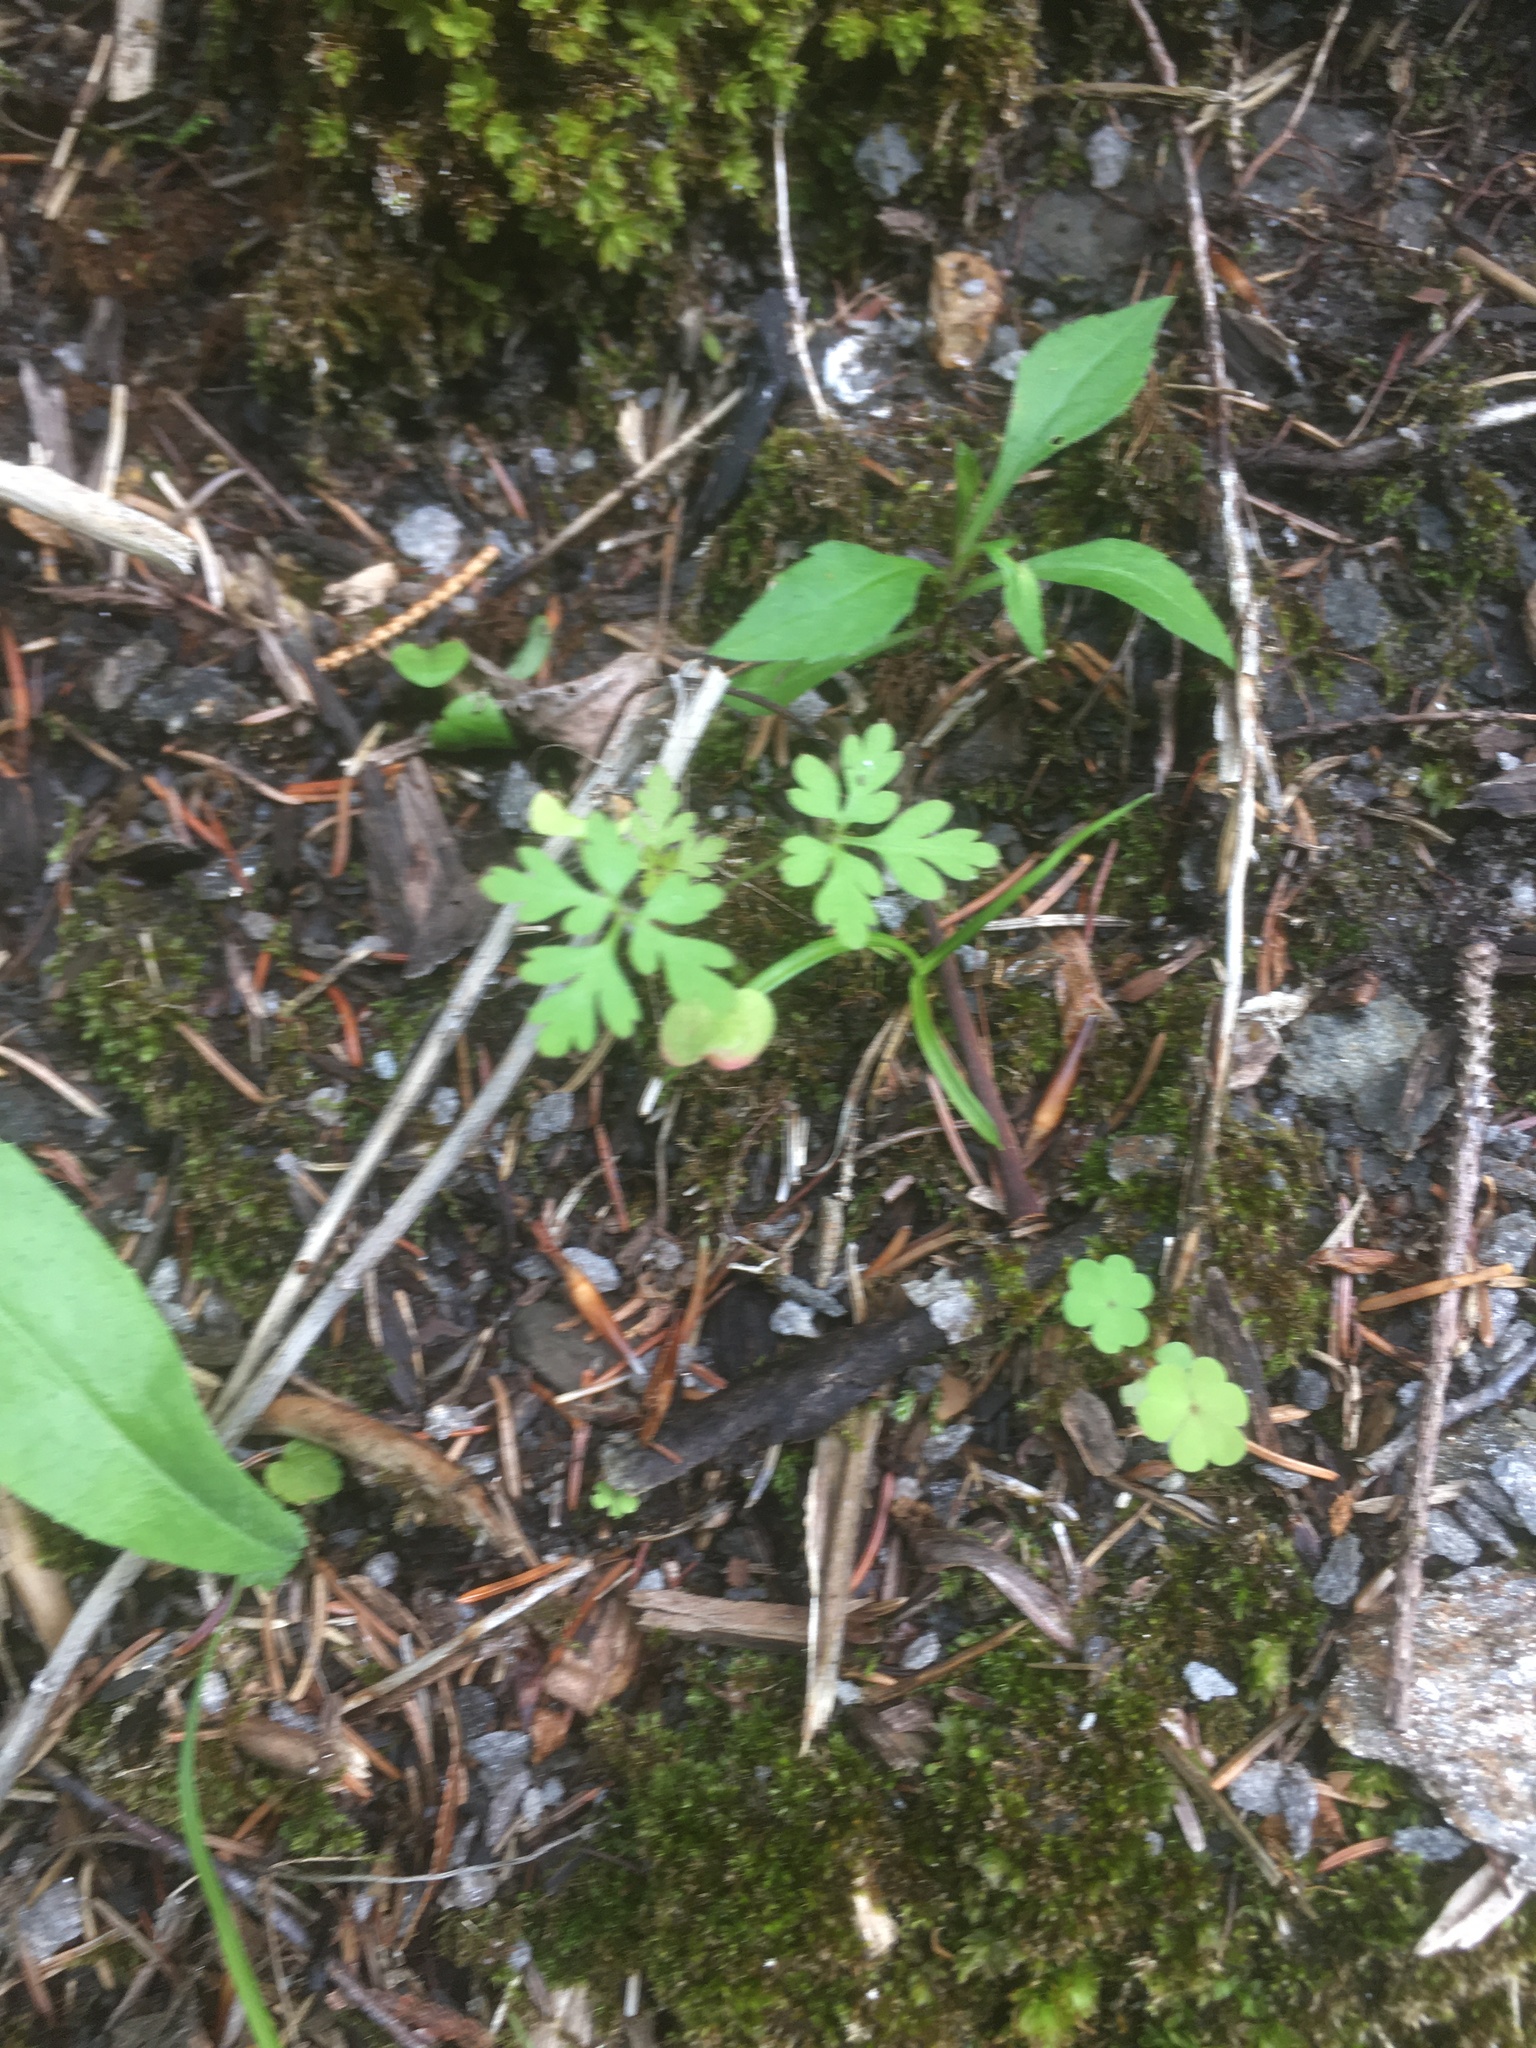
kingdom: Plantae
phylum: Tracheophyta
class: Magnoliopsida
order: Geraniales
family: Geraniaceae
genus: Geranium
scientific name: Geranium robertianum
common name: Herb-robert
